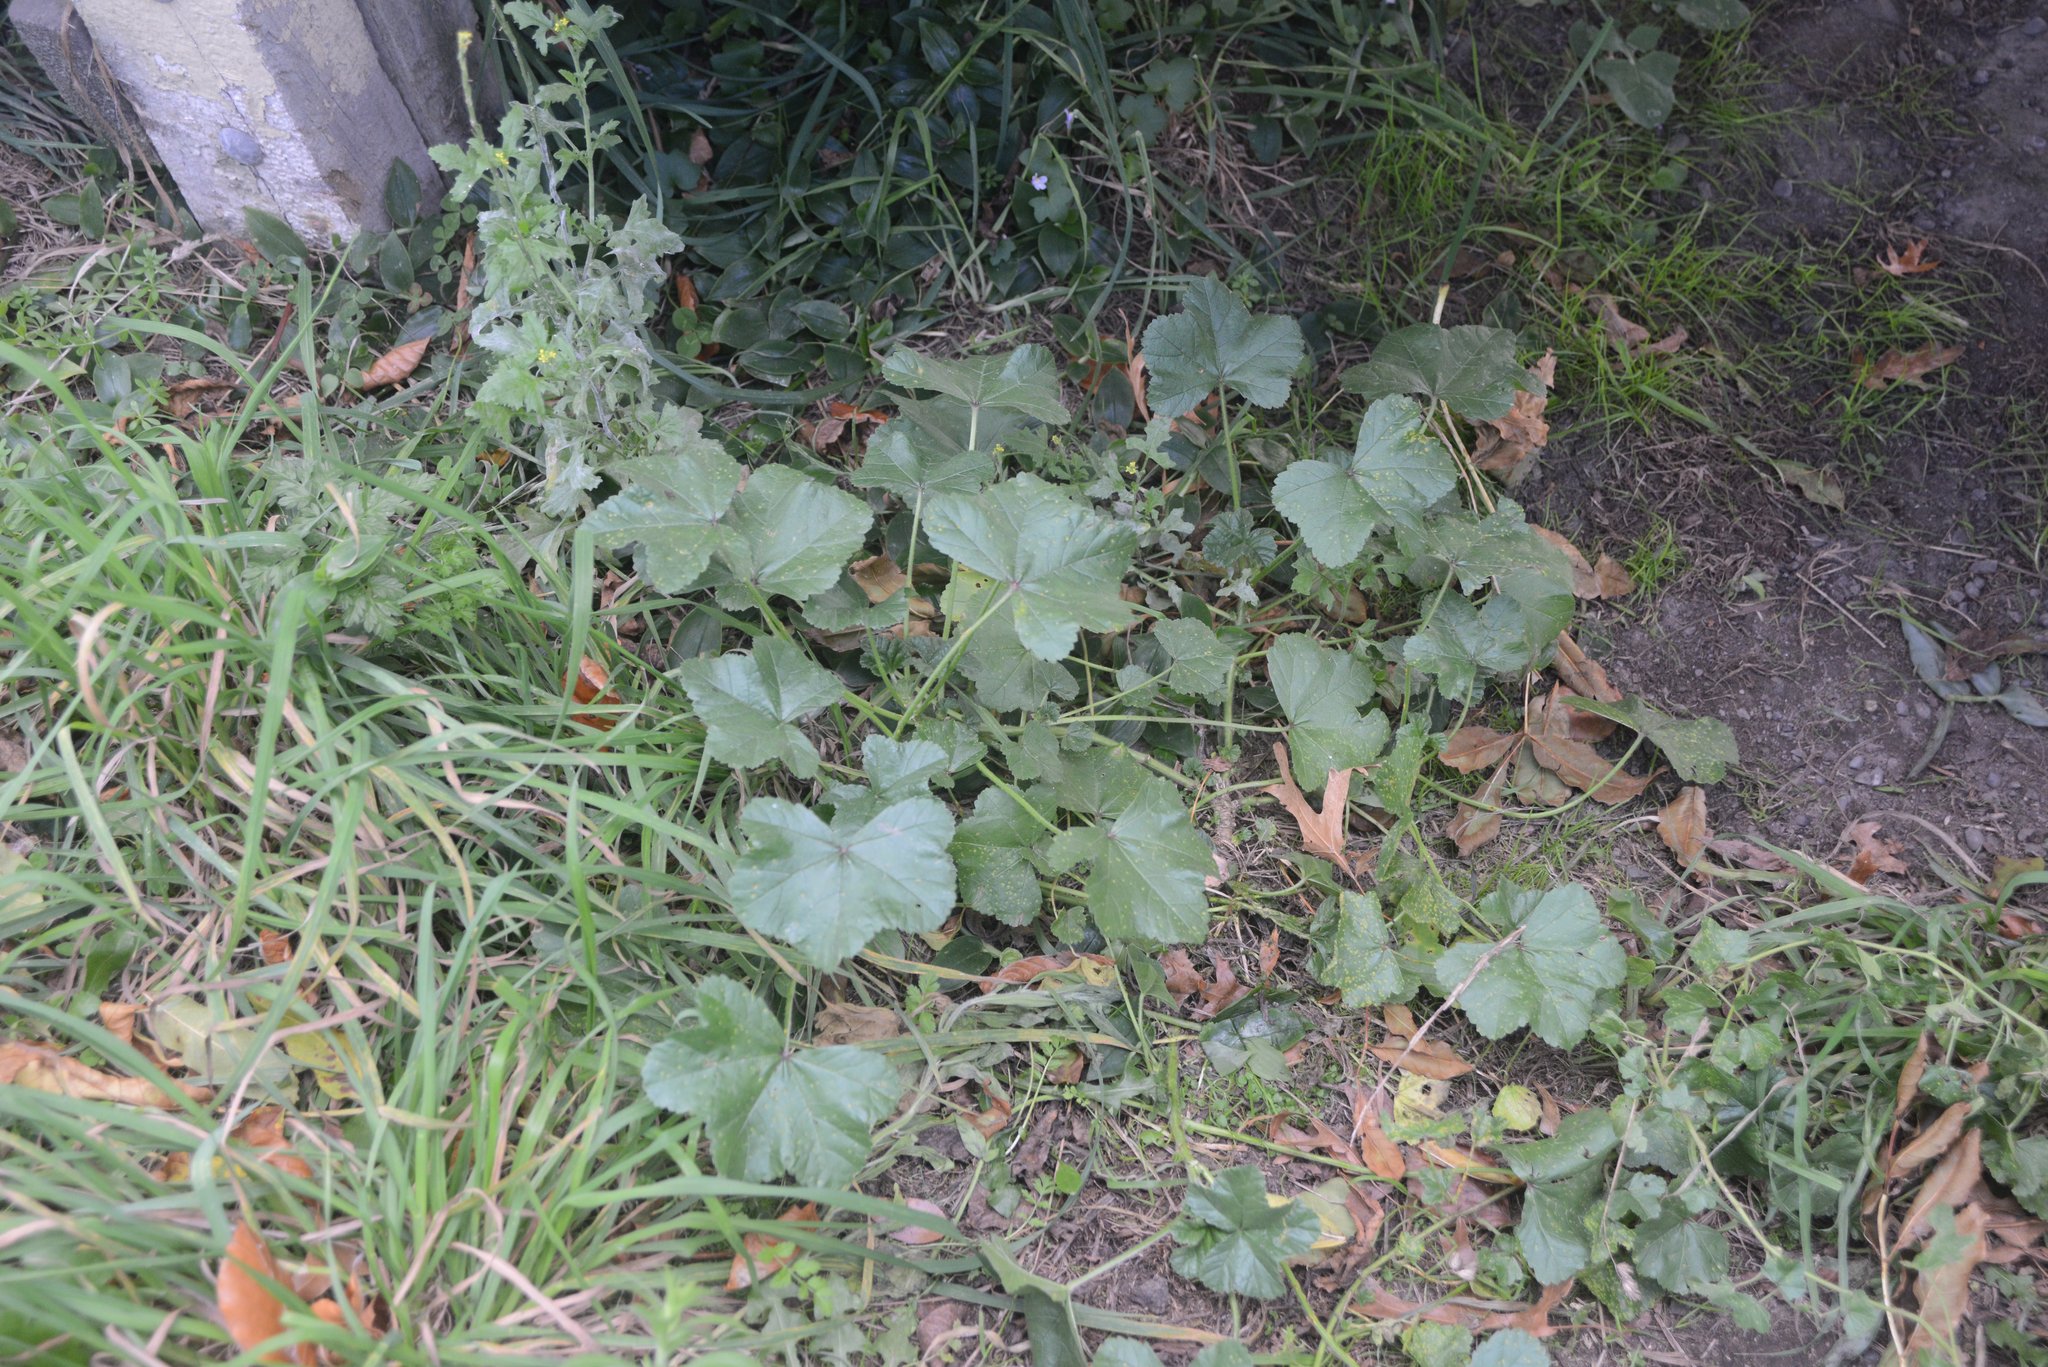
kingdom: Plantae
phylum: Tracheophyta
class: Magnoliopsida
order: Malvales
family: Malvaceae
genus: Malva
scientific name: Malva sylvestris
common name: Common mallow
